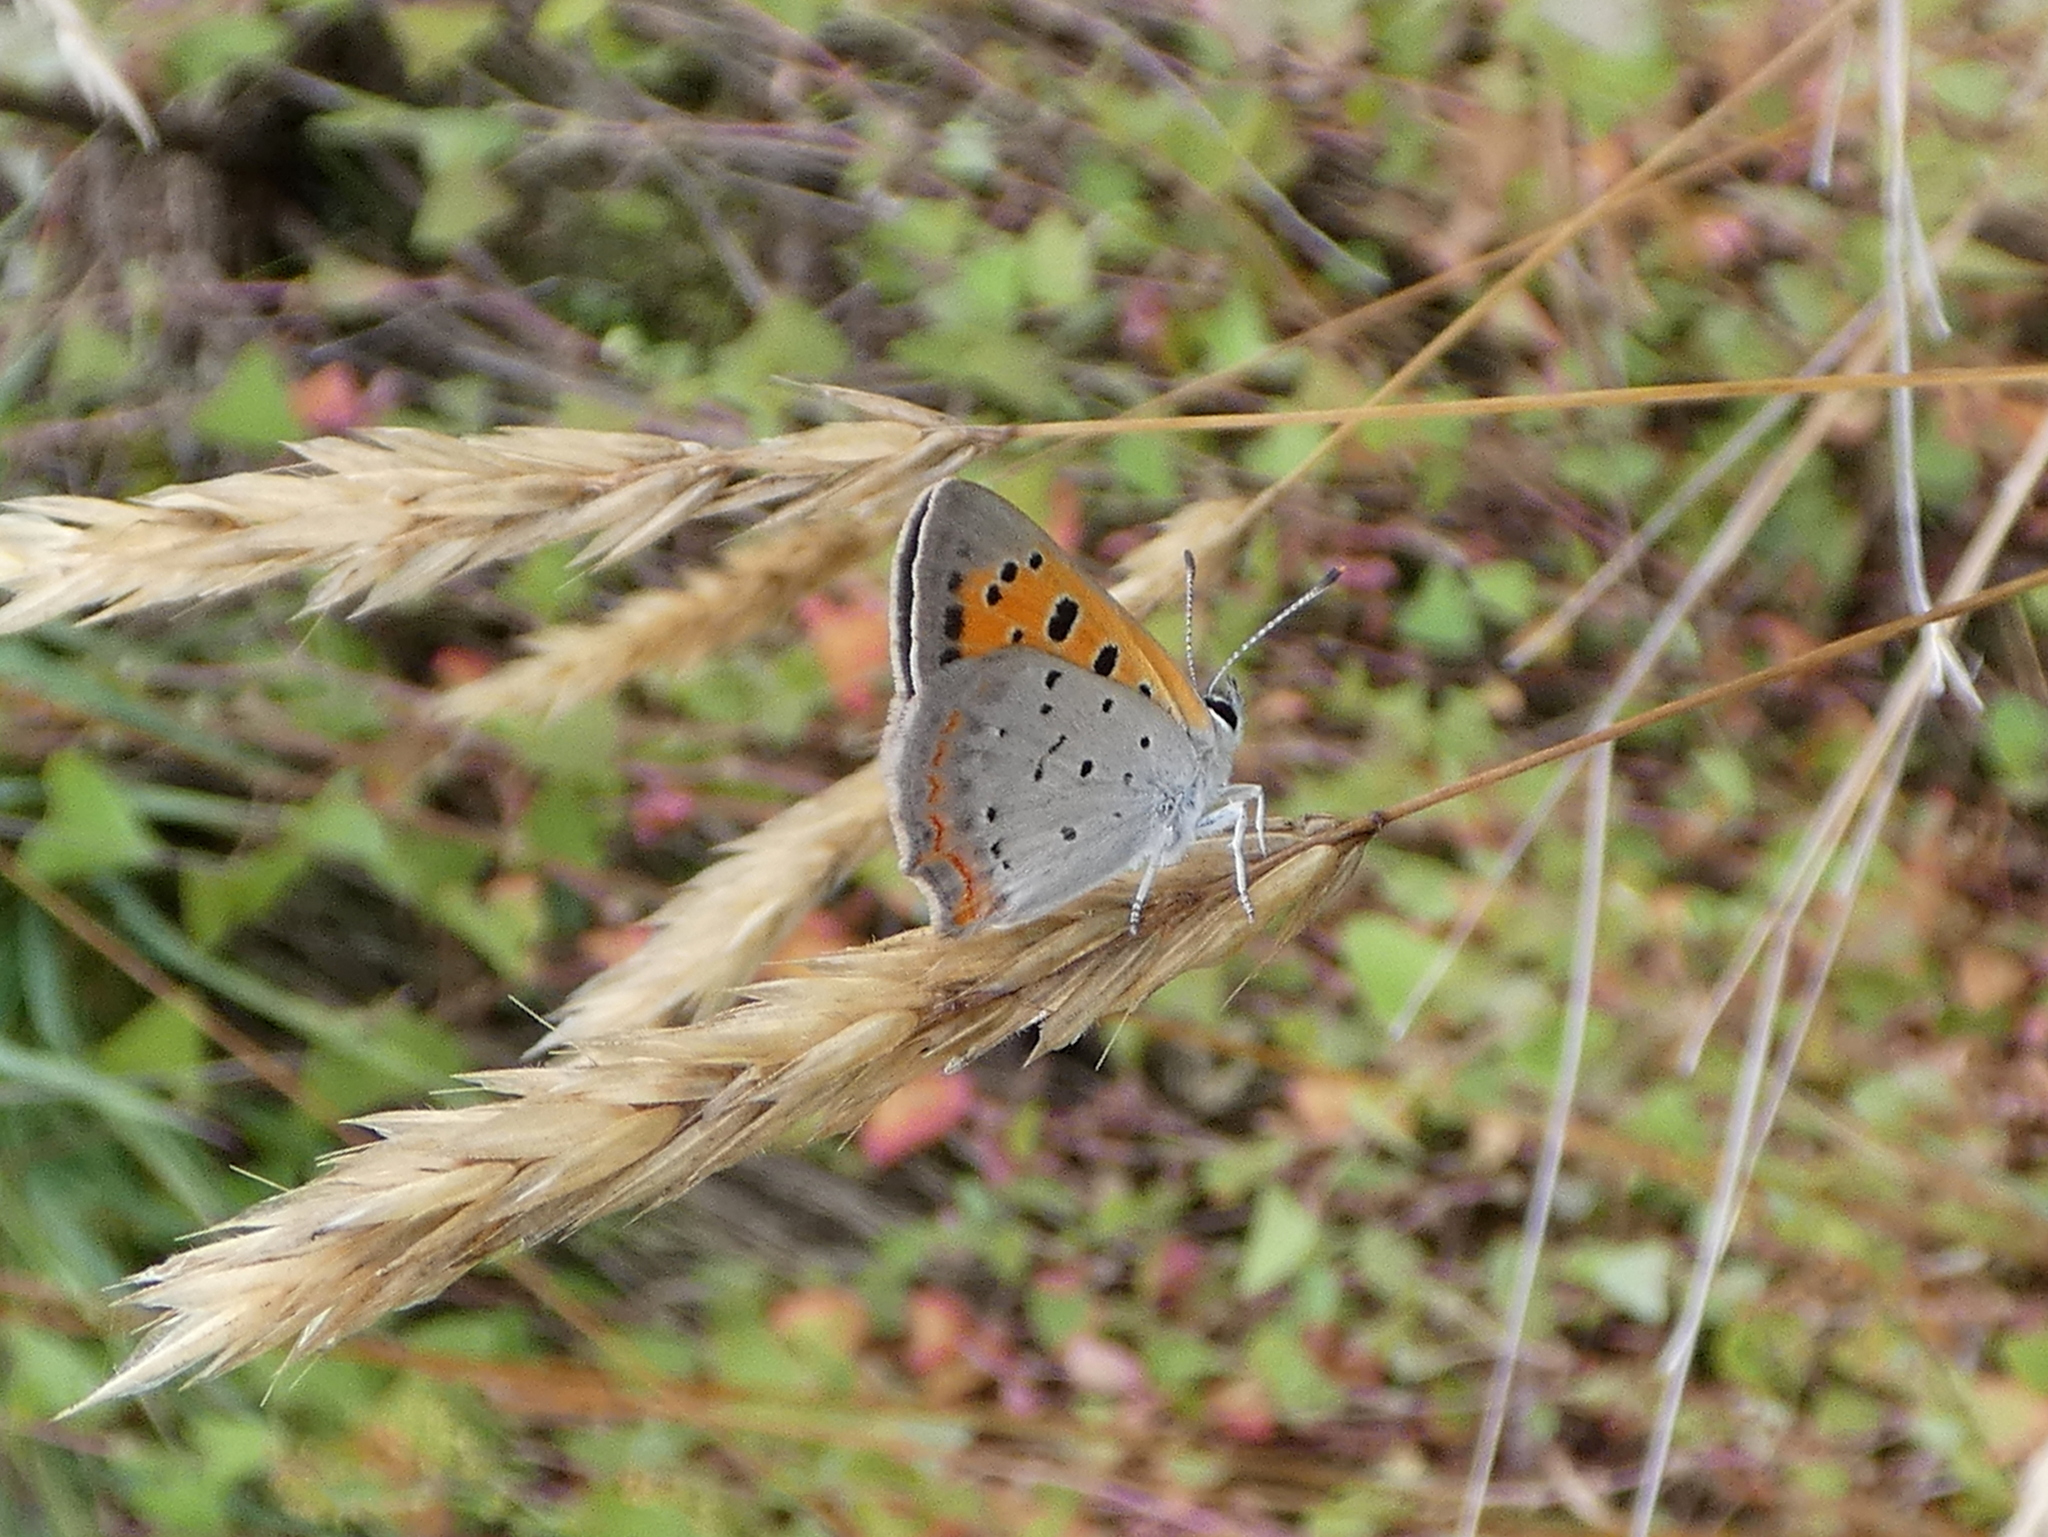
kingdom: Animalia
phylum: Arthropoda
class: Insecta
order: Lepidoptera
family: Lycaenidae
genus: Lycaena
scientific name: Lycaena hypophlaeas
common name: American copper
